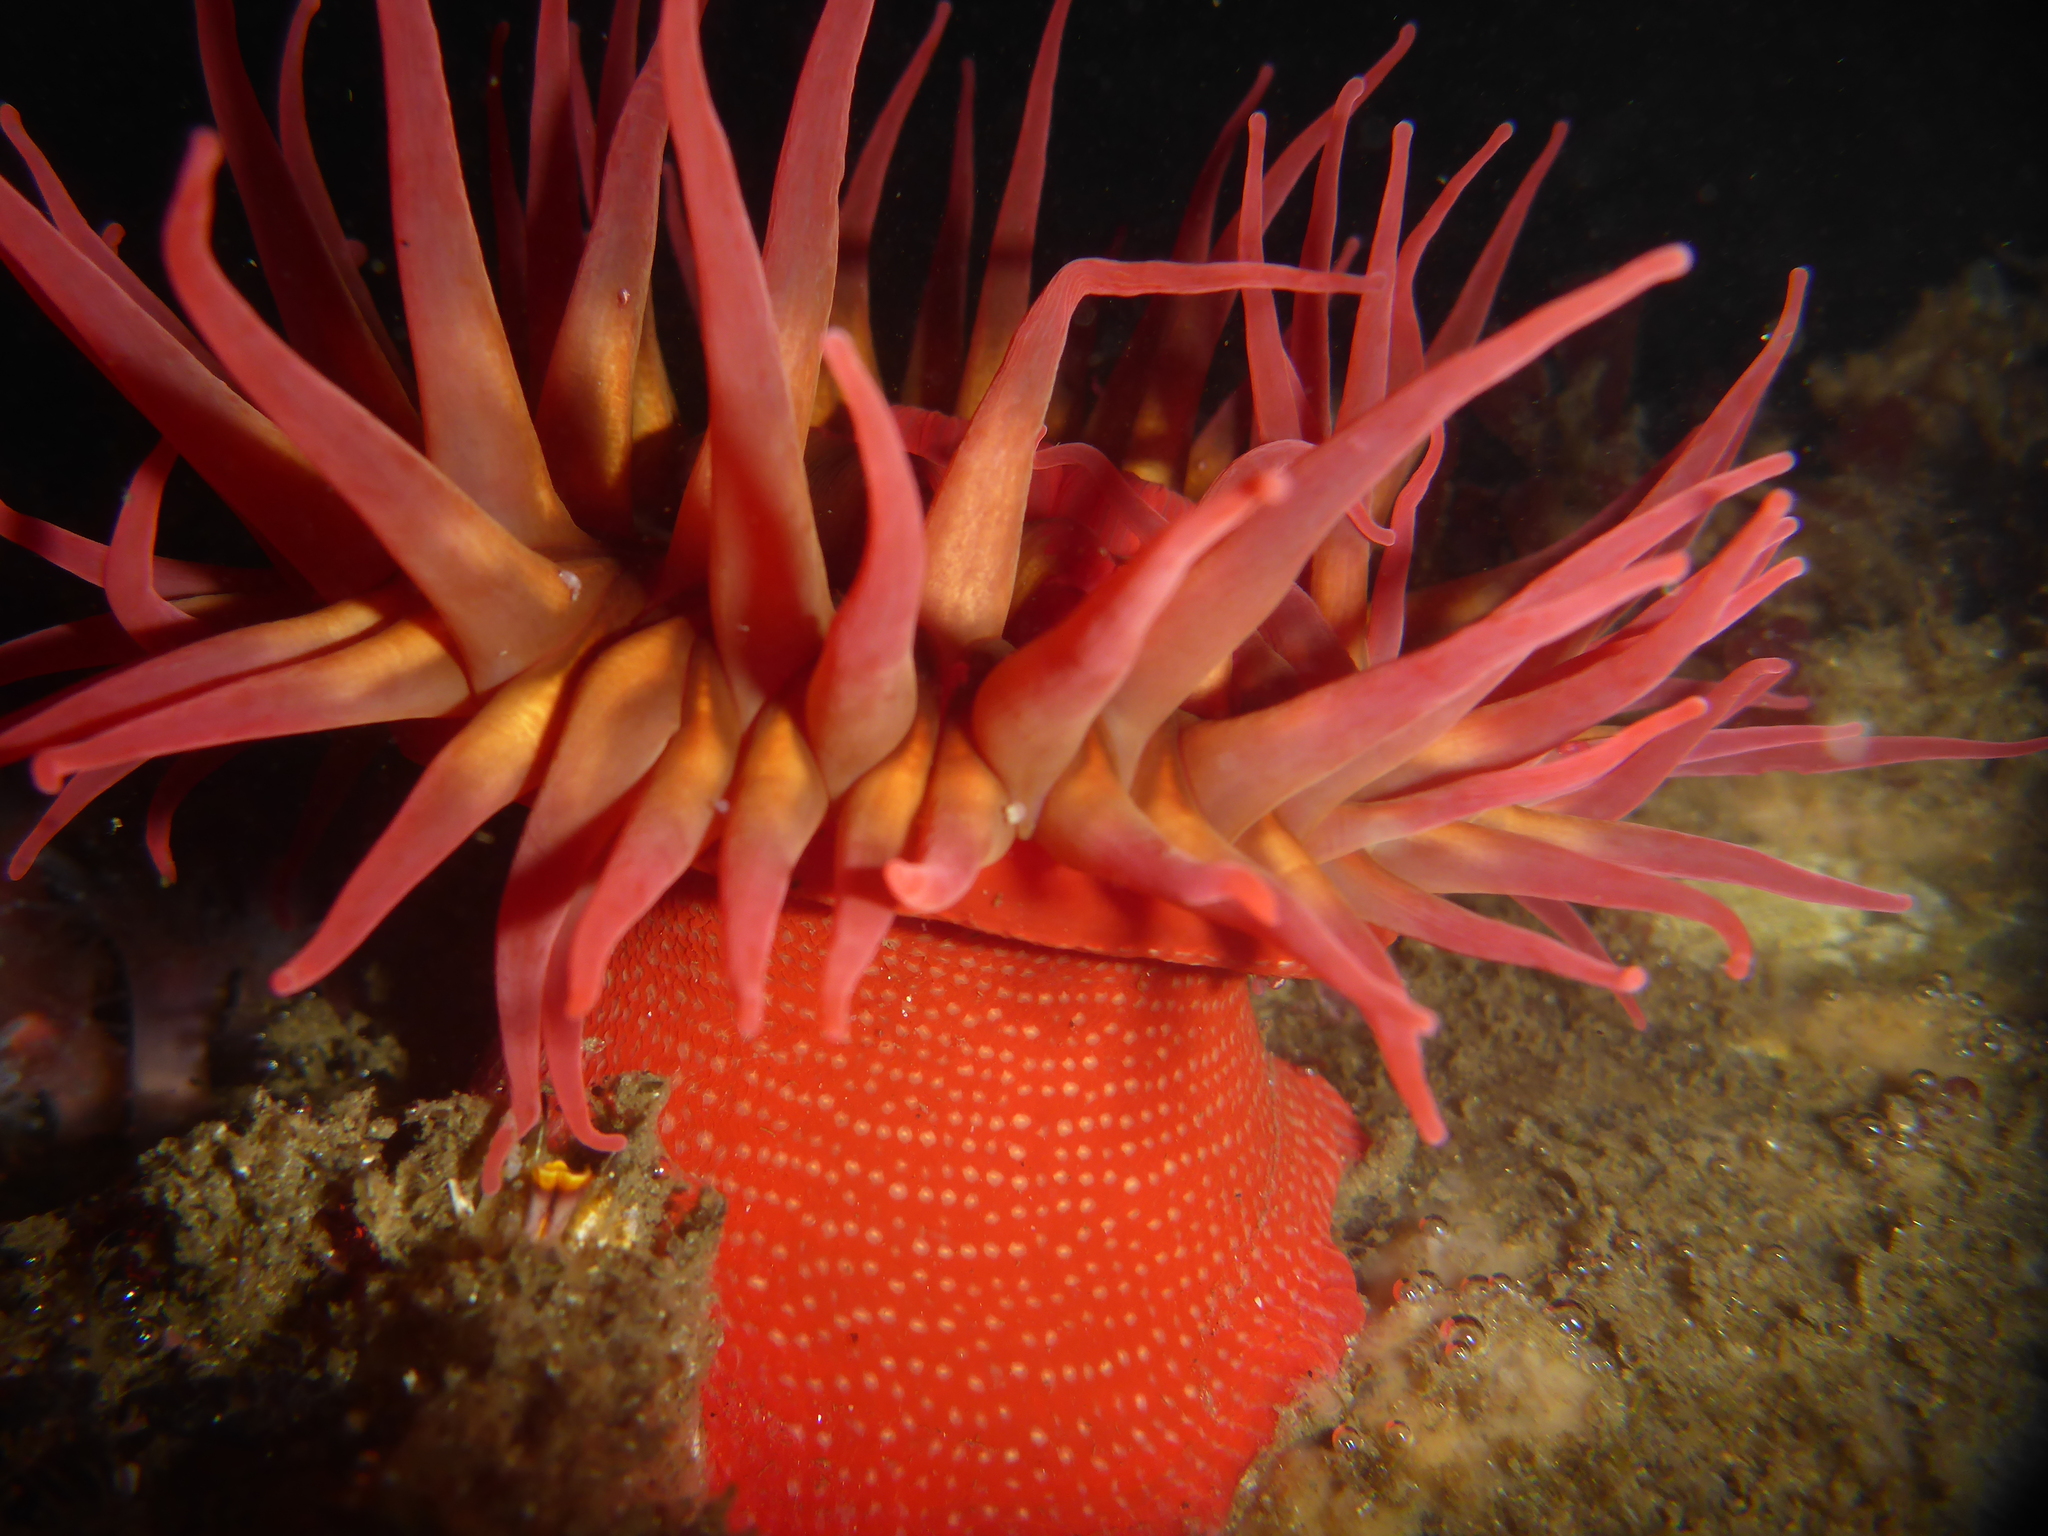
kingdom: Animalia
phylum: Cnidaria
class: Anthozoa
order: Actiniaria
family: Actiniidae
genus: Cribrinopsis
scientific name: Cribrinopsis albopunctata
